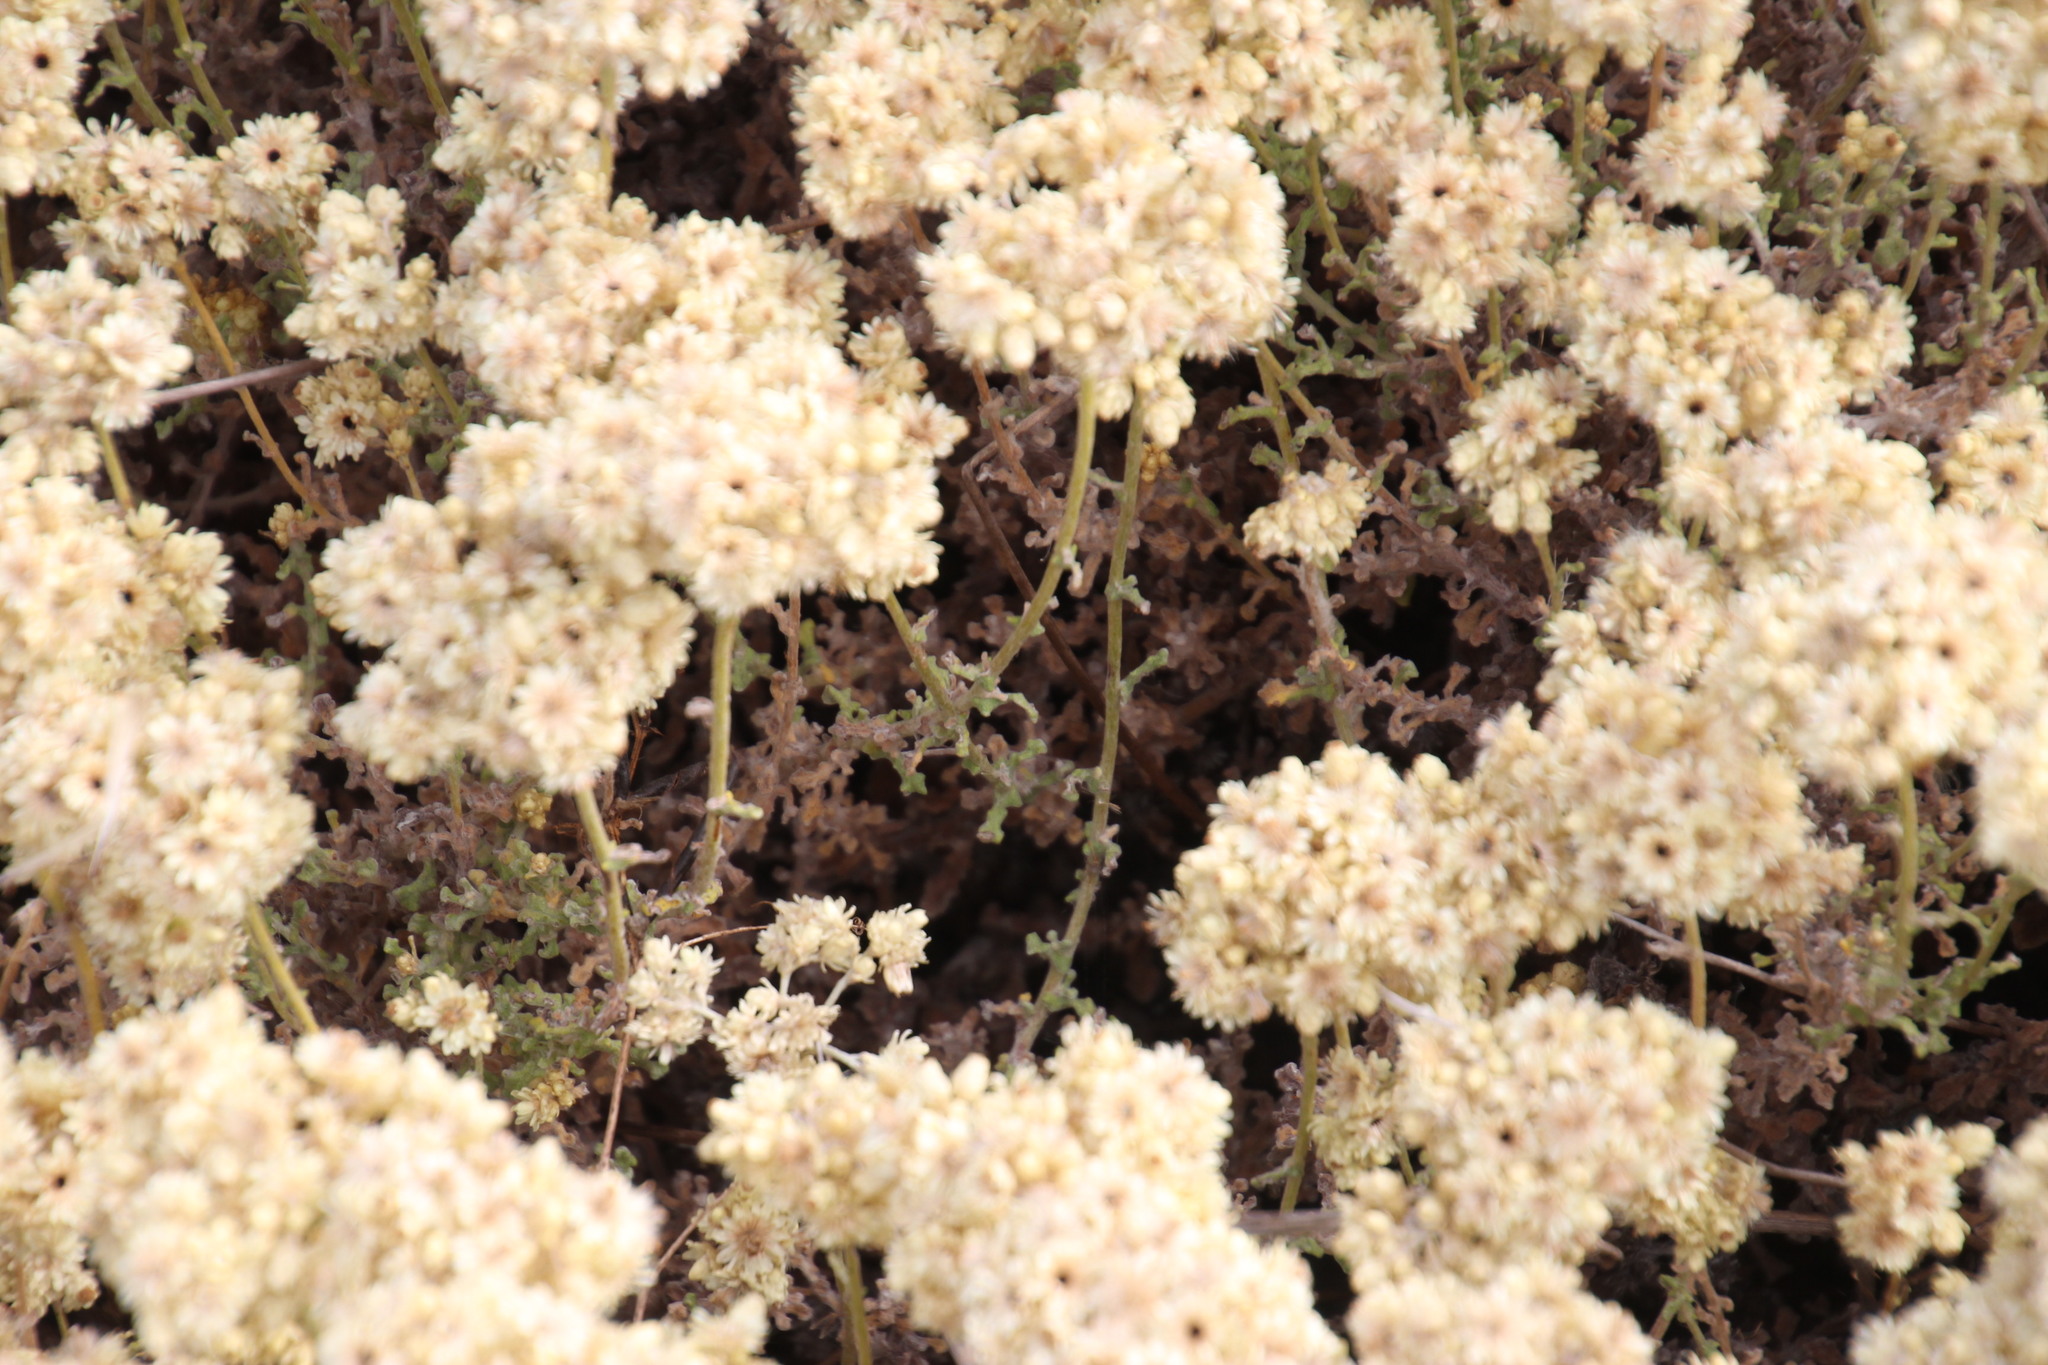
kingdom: Plantae
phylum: Tracheophyta
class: Magnoliopsida
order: Asterales
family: Asteraceae
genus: Helichrysum
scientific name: Helichrysum patulum
